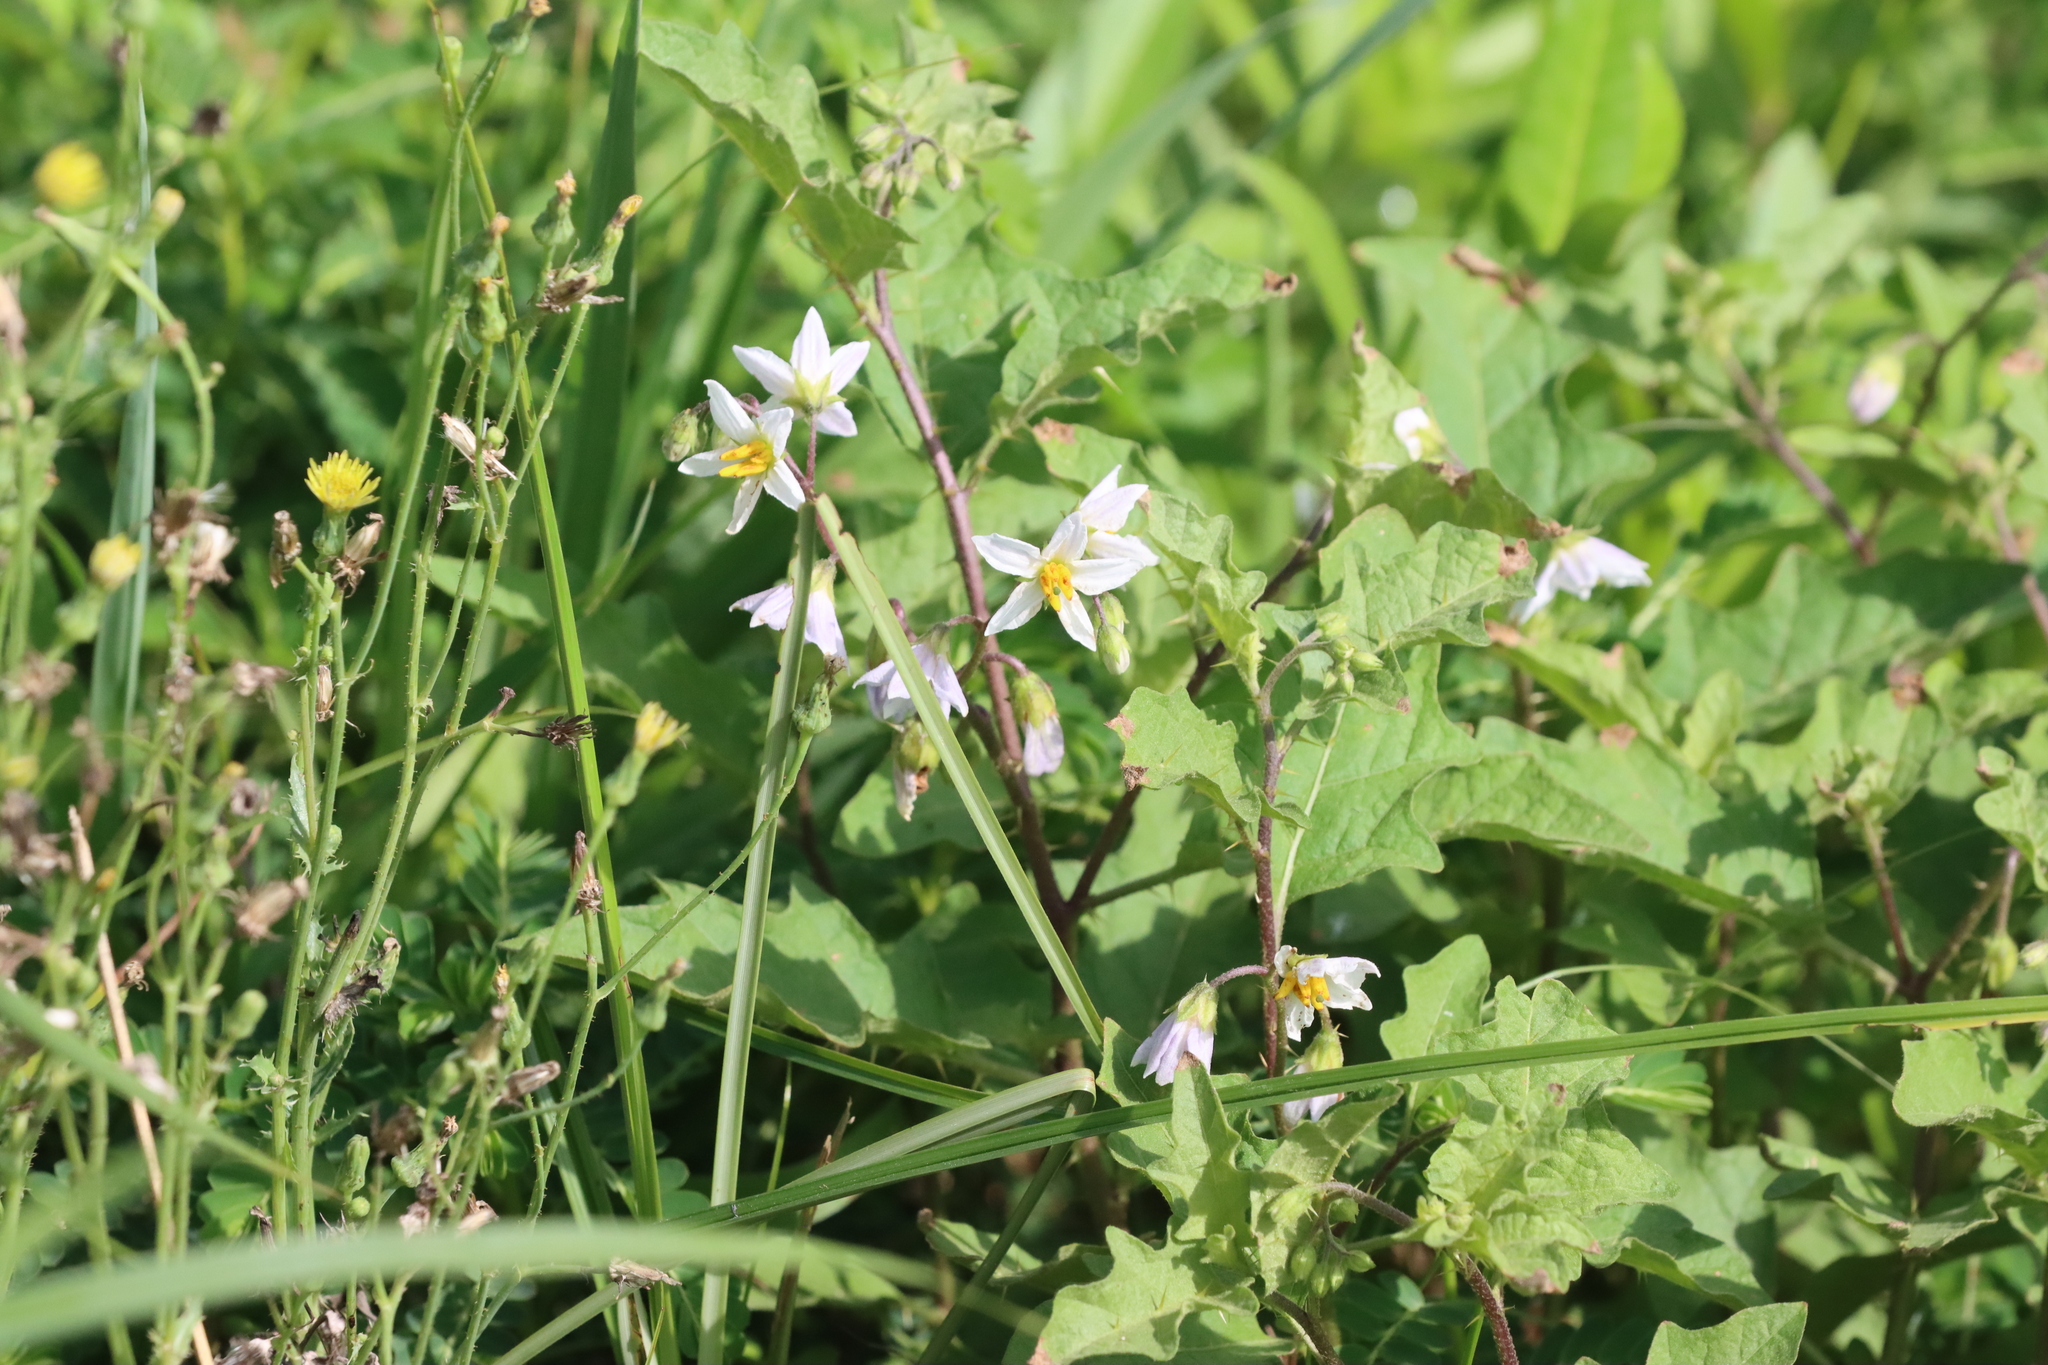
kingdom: Plantae
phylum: Tracheophyta
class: Magnoliopsida
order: Solanales
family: Solanaceae
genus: Solanum
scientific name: Solanum carolinense
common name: Horse-nettle
